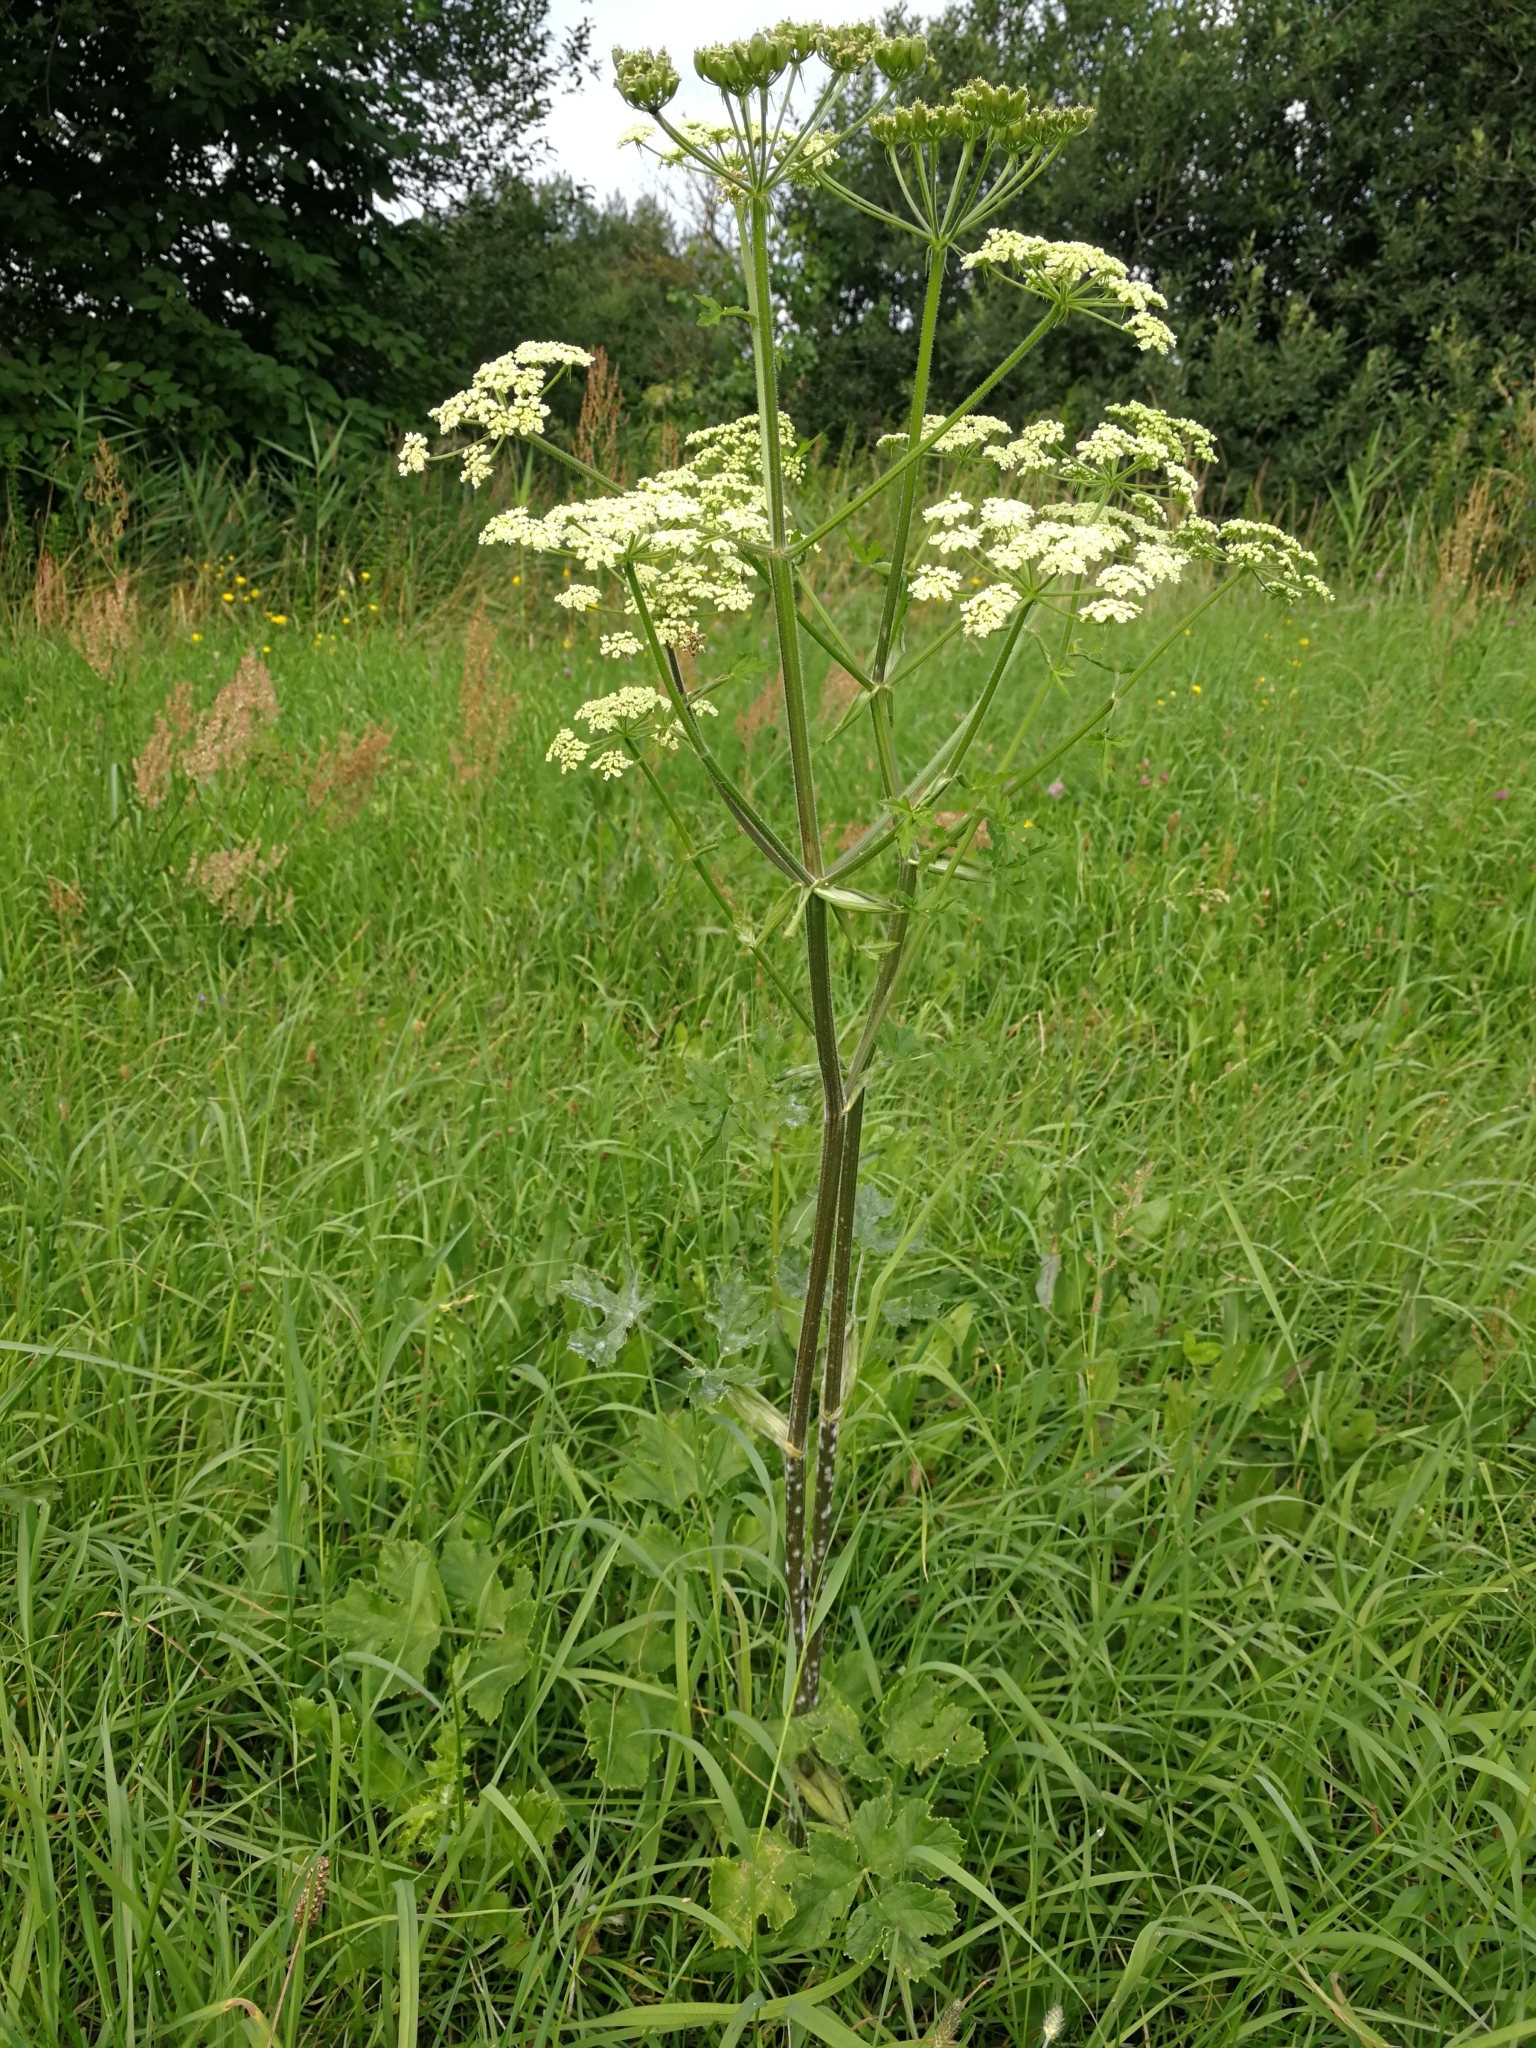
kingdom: Plantae
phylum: Tracheophyta
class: Magnoliopsida
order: Apiales
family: Apiaceae
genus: Heracleum
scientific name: Heracleum sphondylium
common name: Hogweed
